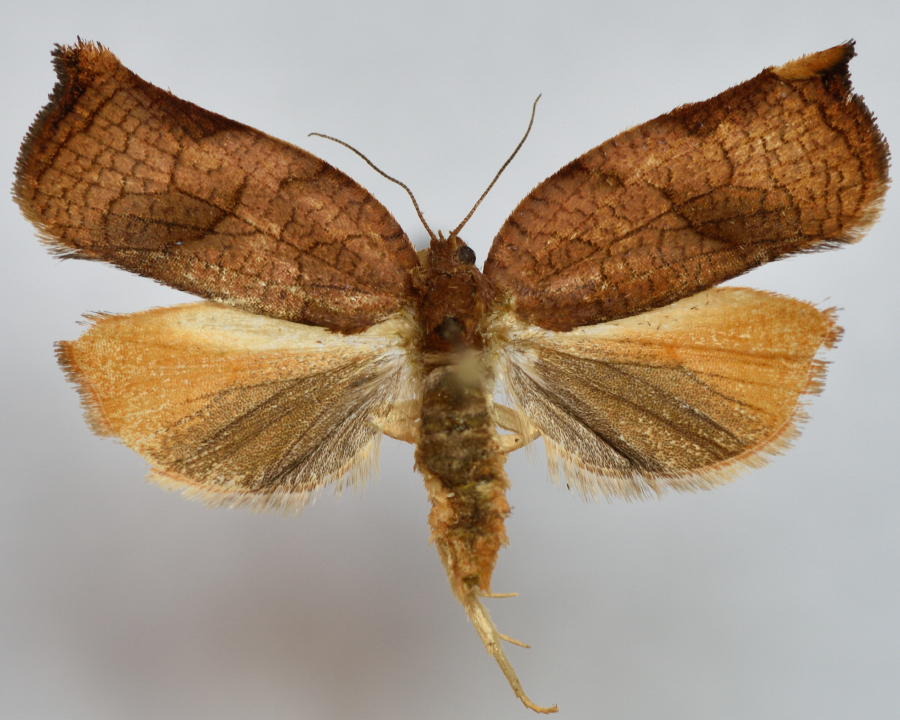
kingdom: Animalia
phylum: Arthropoda
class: Insecta
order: Lepidoptera
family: Tortricidae
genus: Archips
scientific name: Archips podana
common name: Large fruit-tree tortrix
